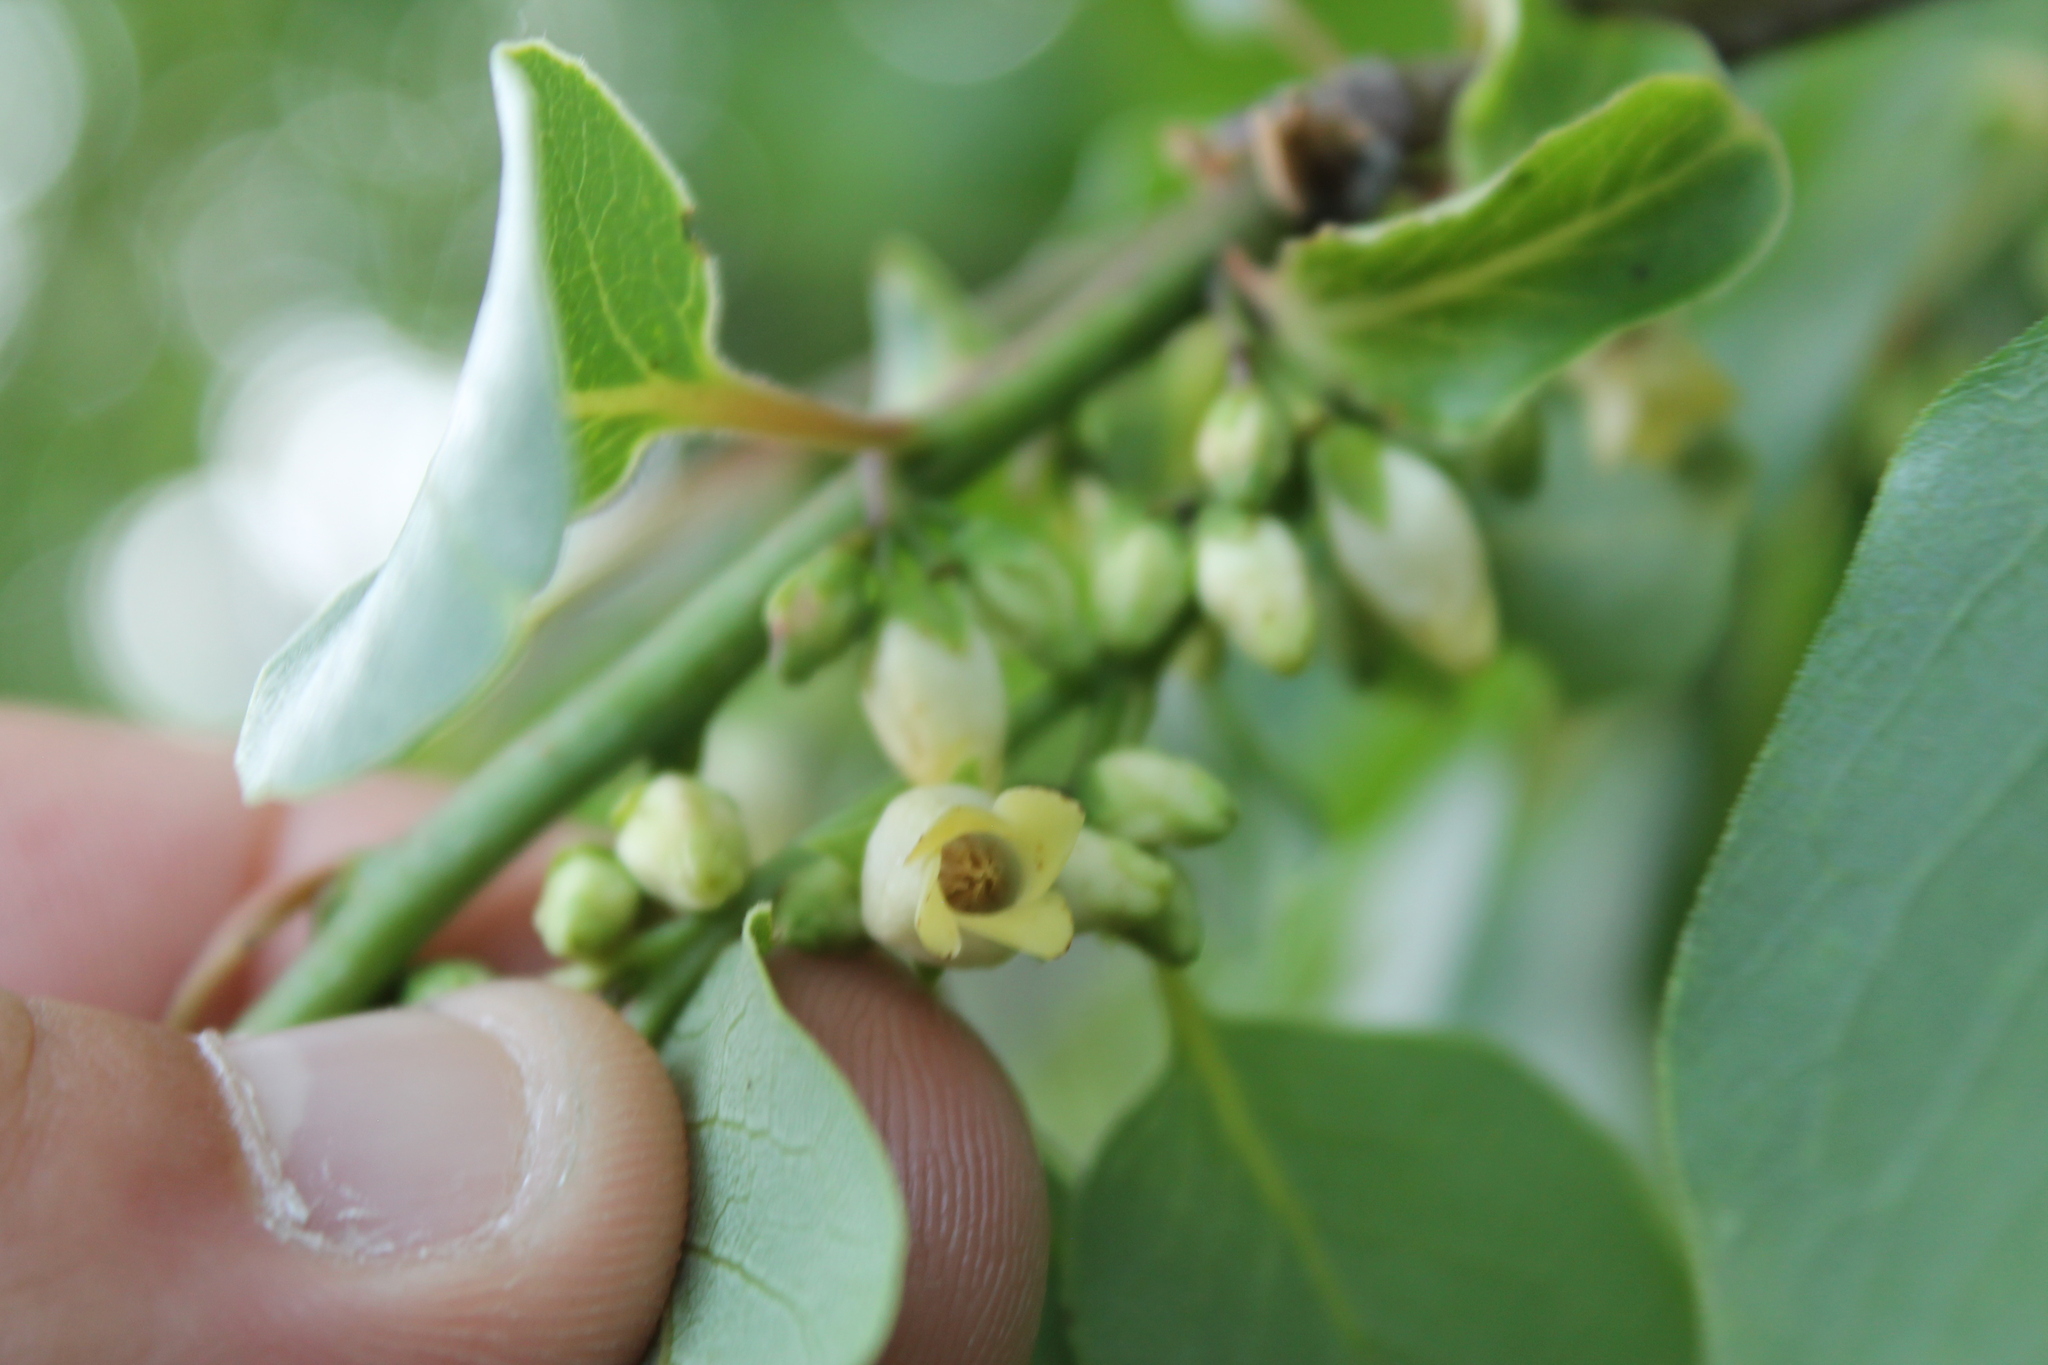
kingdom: Plantae
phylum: Tracheophyta
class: Magnoliopsida
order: Ericales
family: Ebenaceae
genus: Diospyros
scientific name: Diospyros virginiana
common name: Persimmon
